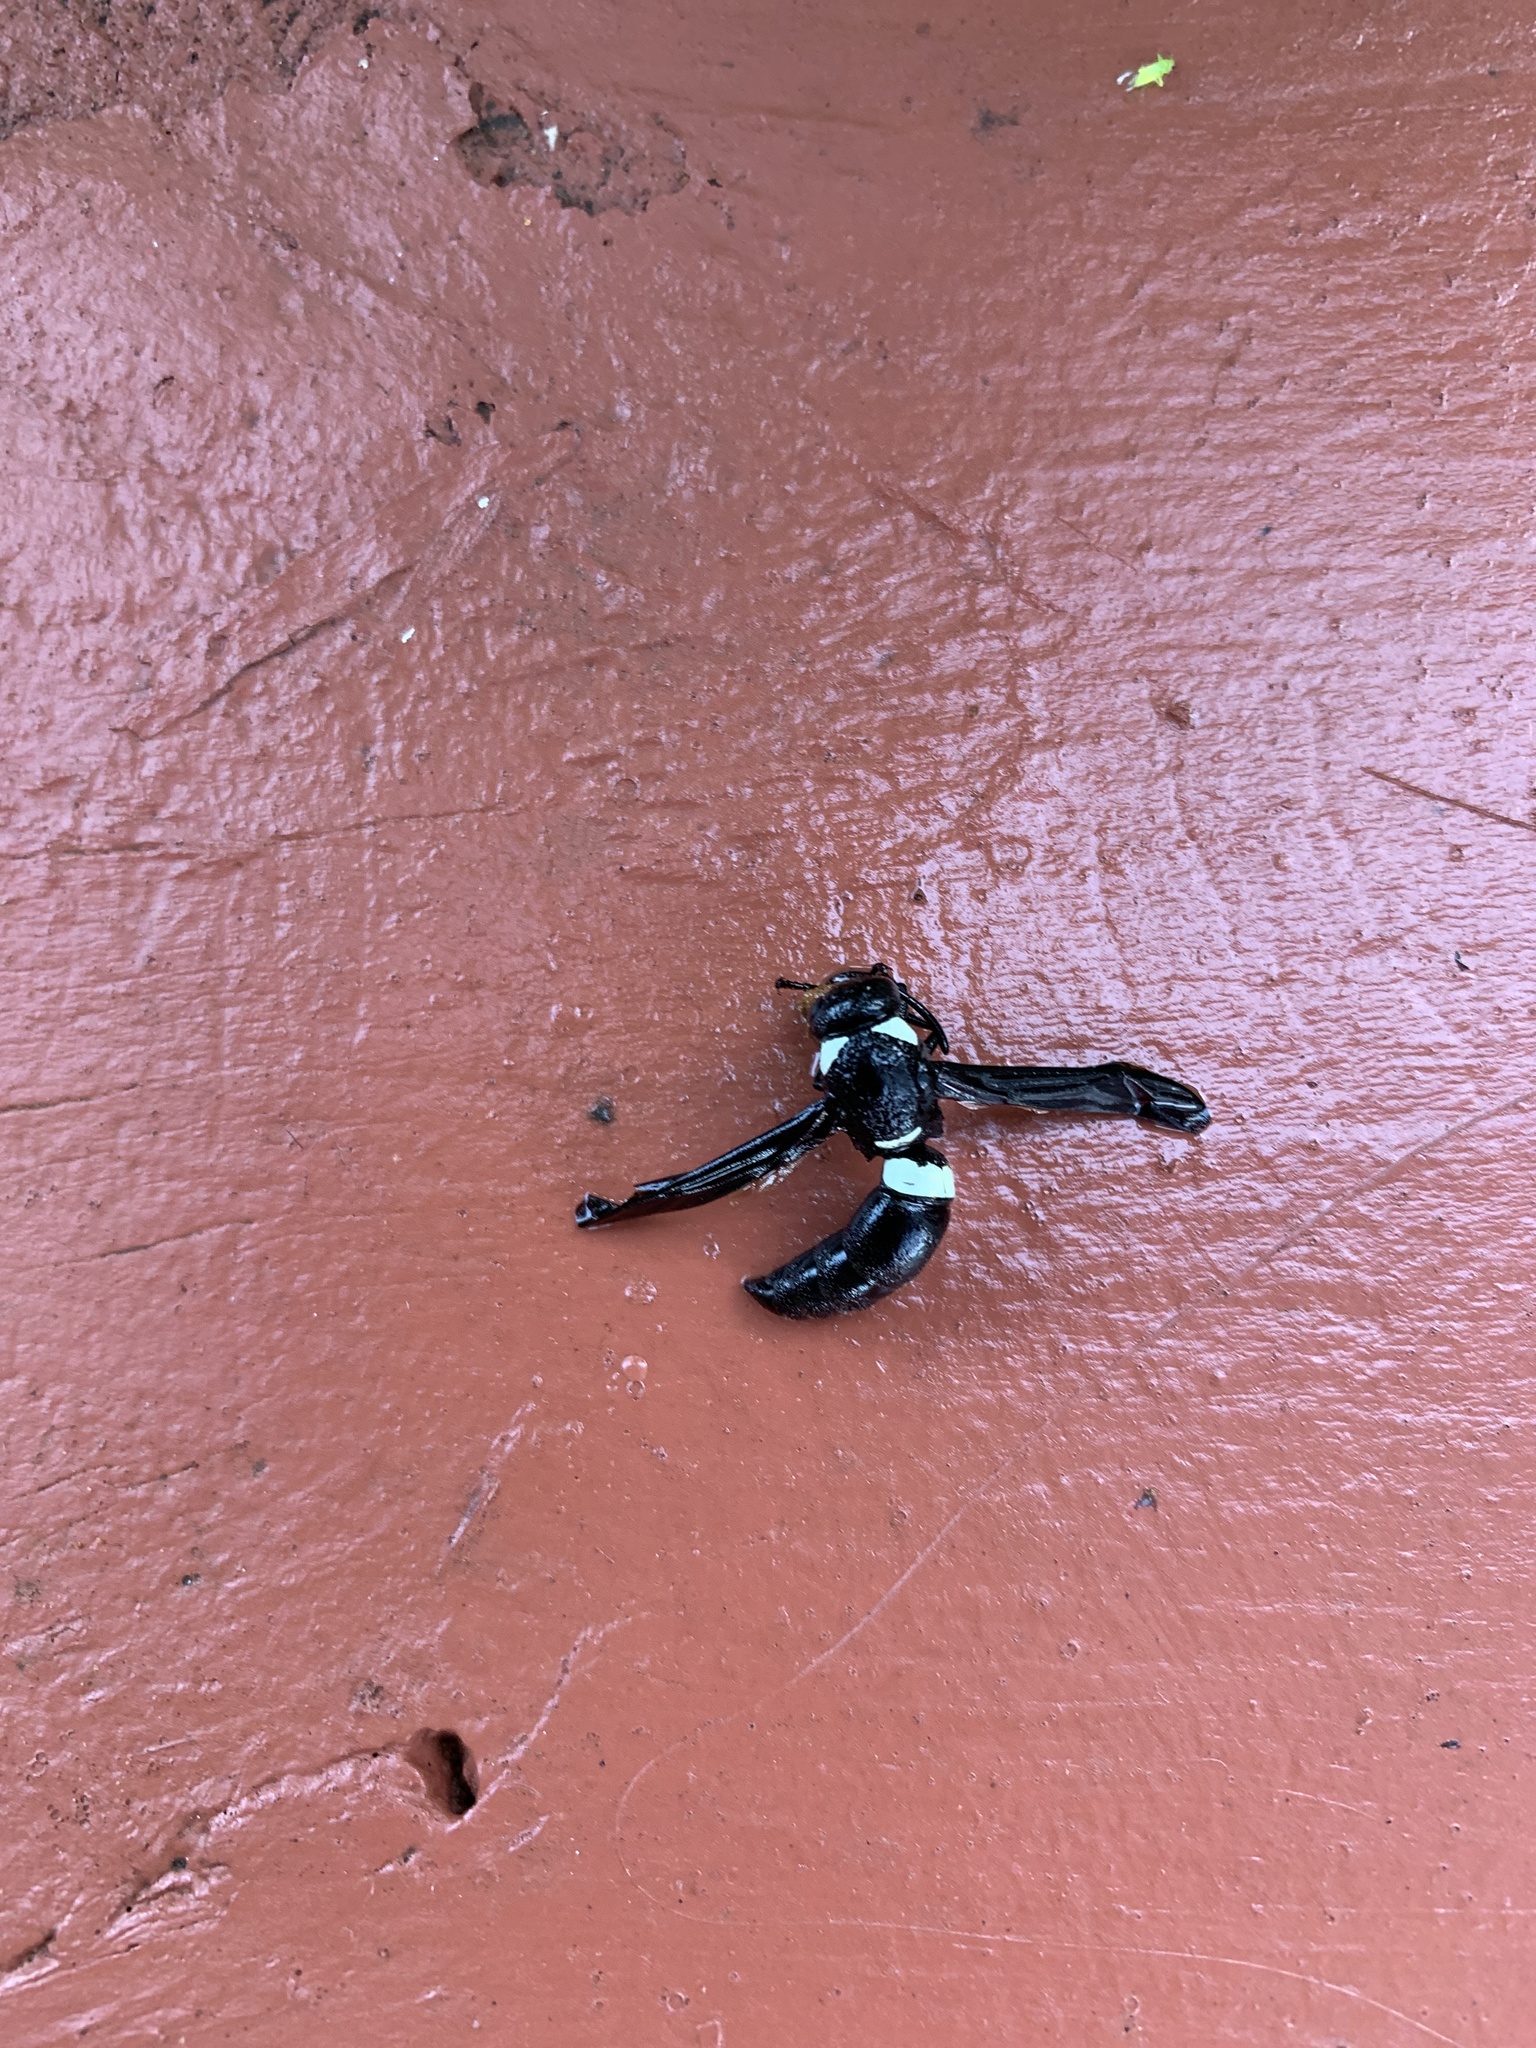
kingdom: Animalia
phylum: Arthropoda
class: Insecta
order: Hymenoptera
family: Eumenidae
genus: Monobia
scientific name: Monobia quadridens
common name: Four-toothed mason wasp
